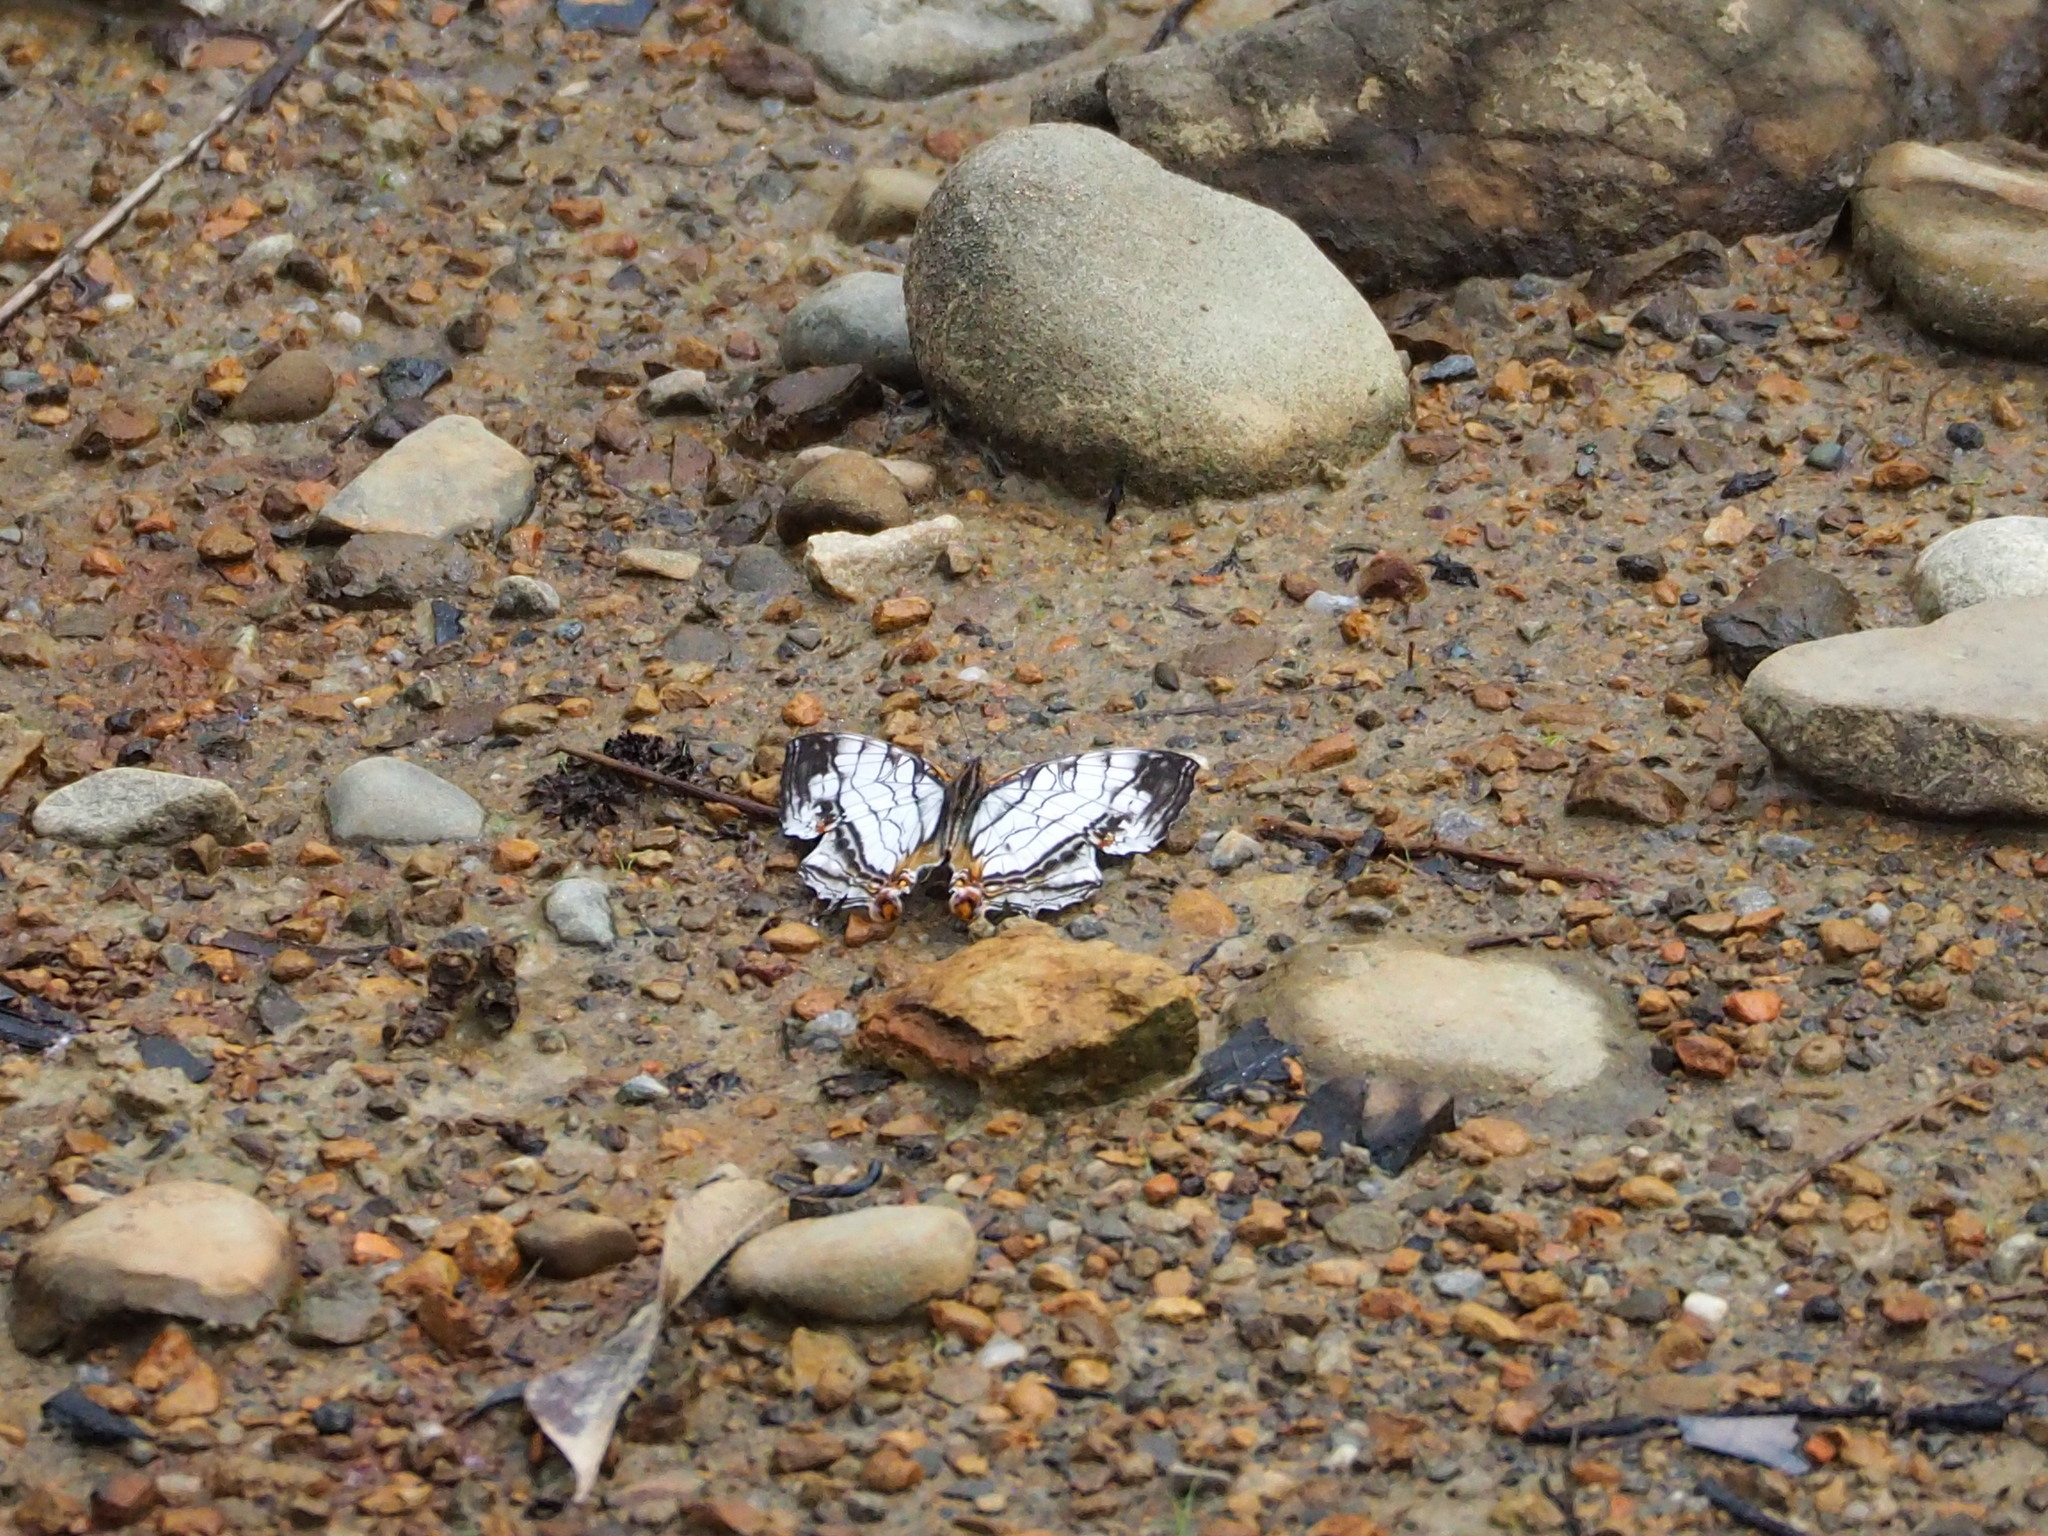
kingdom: Animalia
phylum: Arthropoda
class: Insecta
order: Lepidoptera
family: Nymphalidae
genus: Cyrestis
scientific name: Cyrestis thyodamas
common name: Common mapwing
